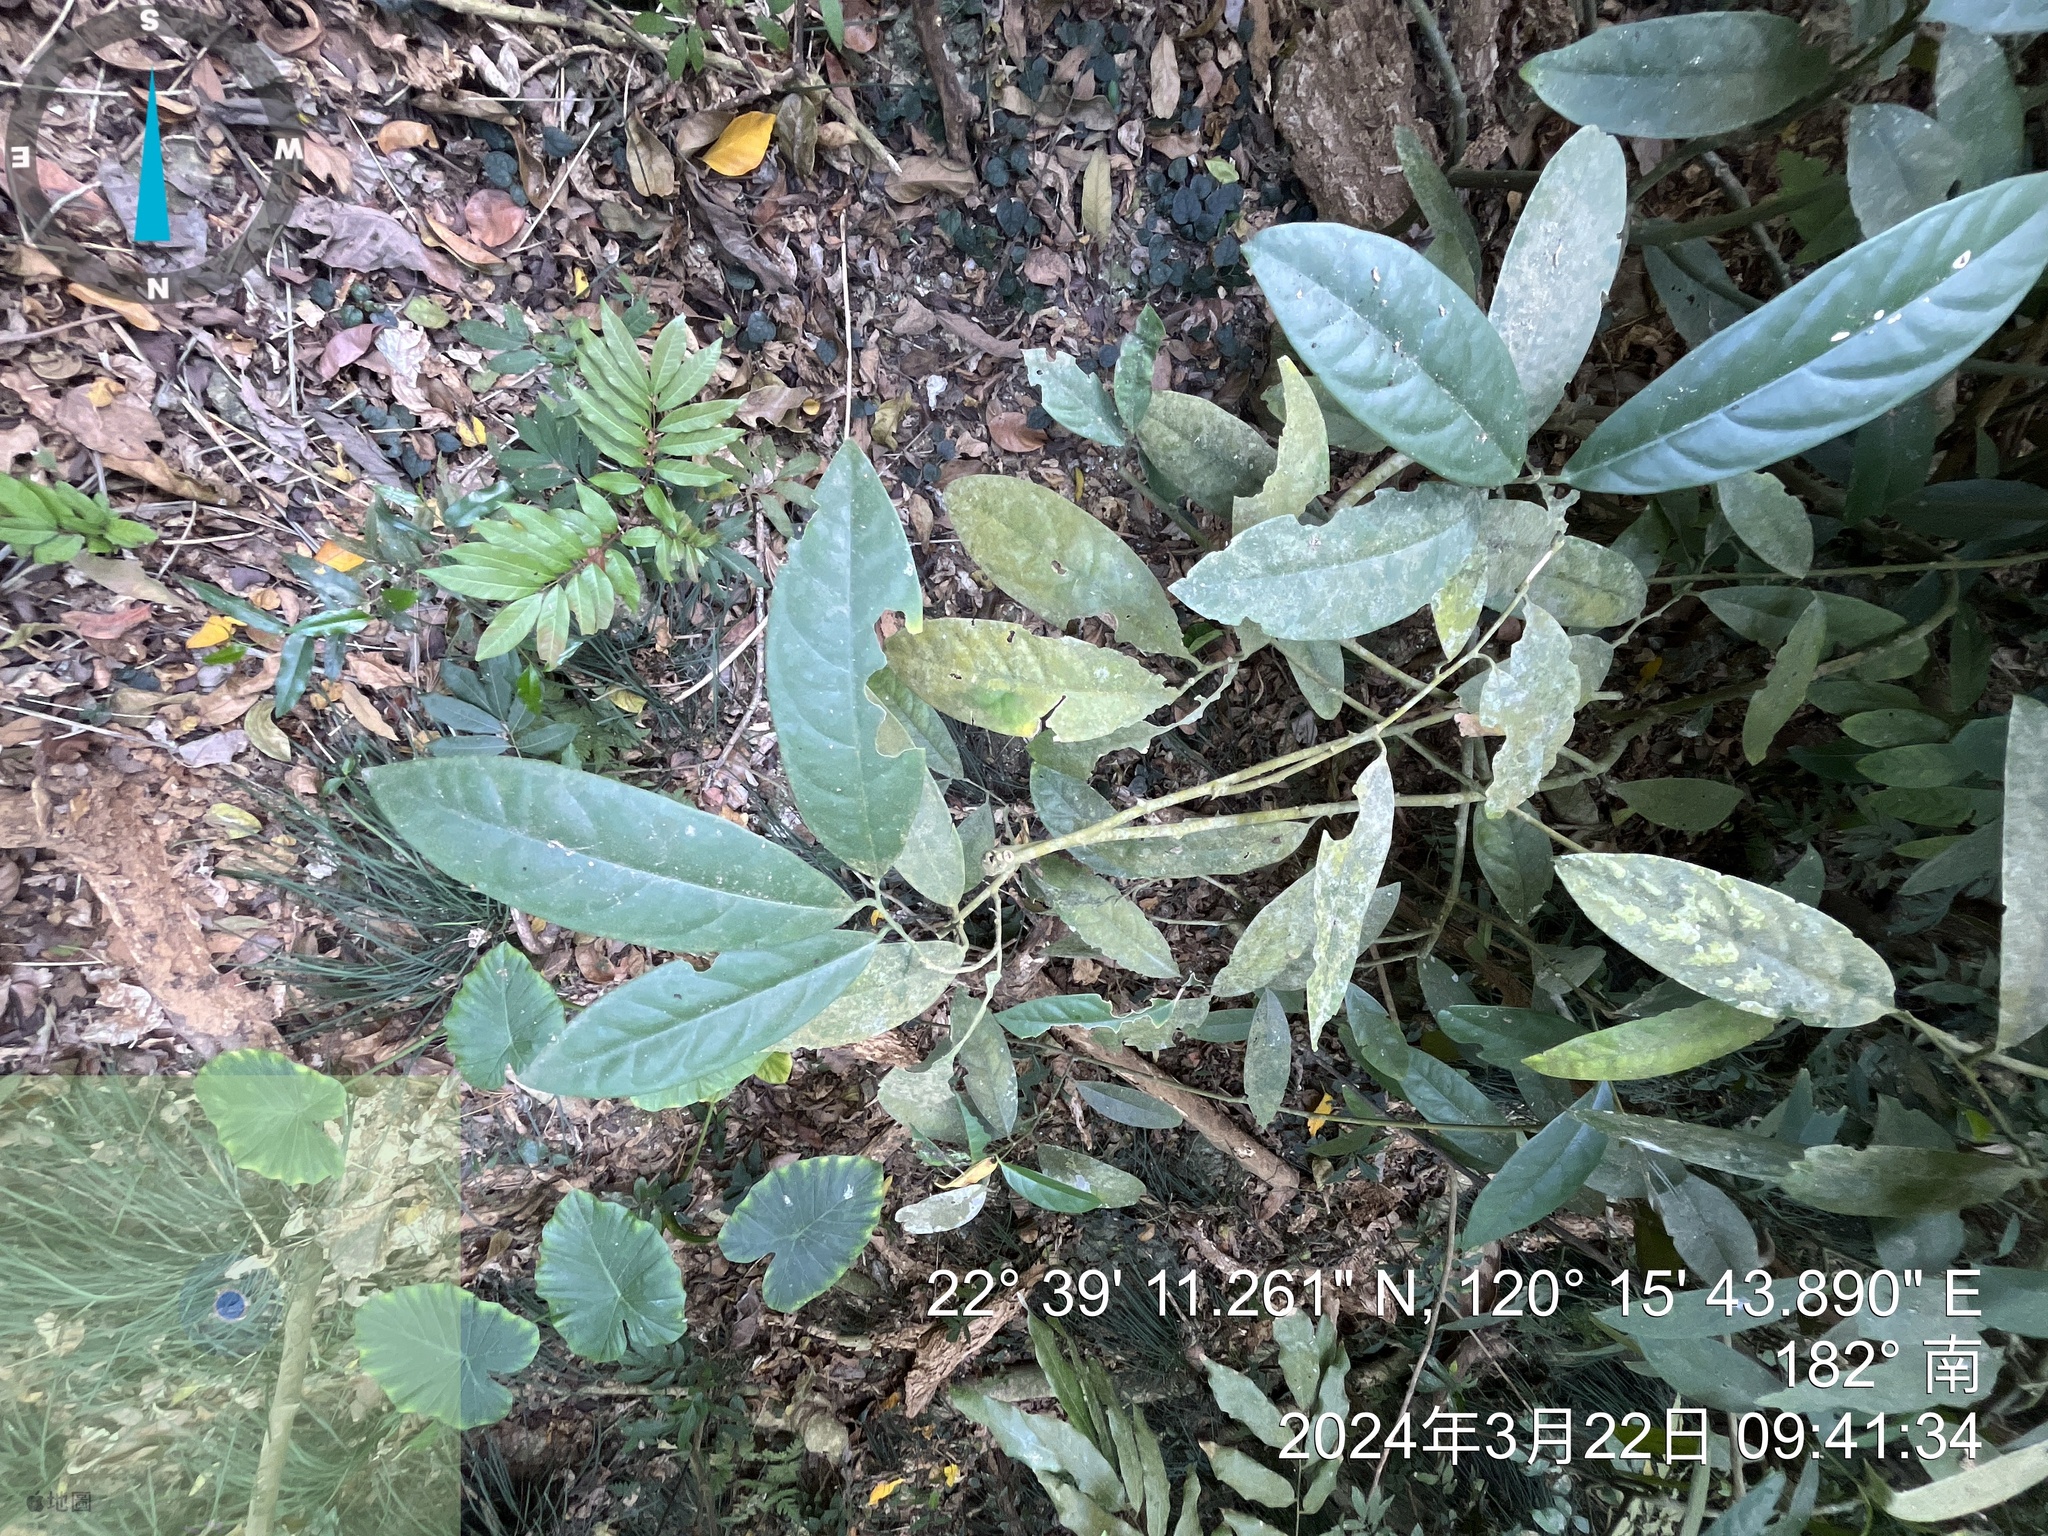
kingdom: Plantae
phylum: Tracheophyta
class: Magnoliopsida
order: Brassicales
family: Capparaceae
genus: Capparis
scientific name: Capparis formosana
